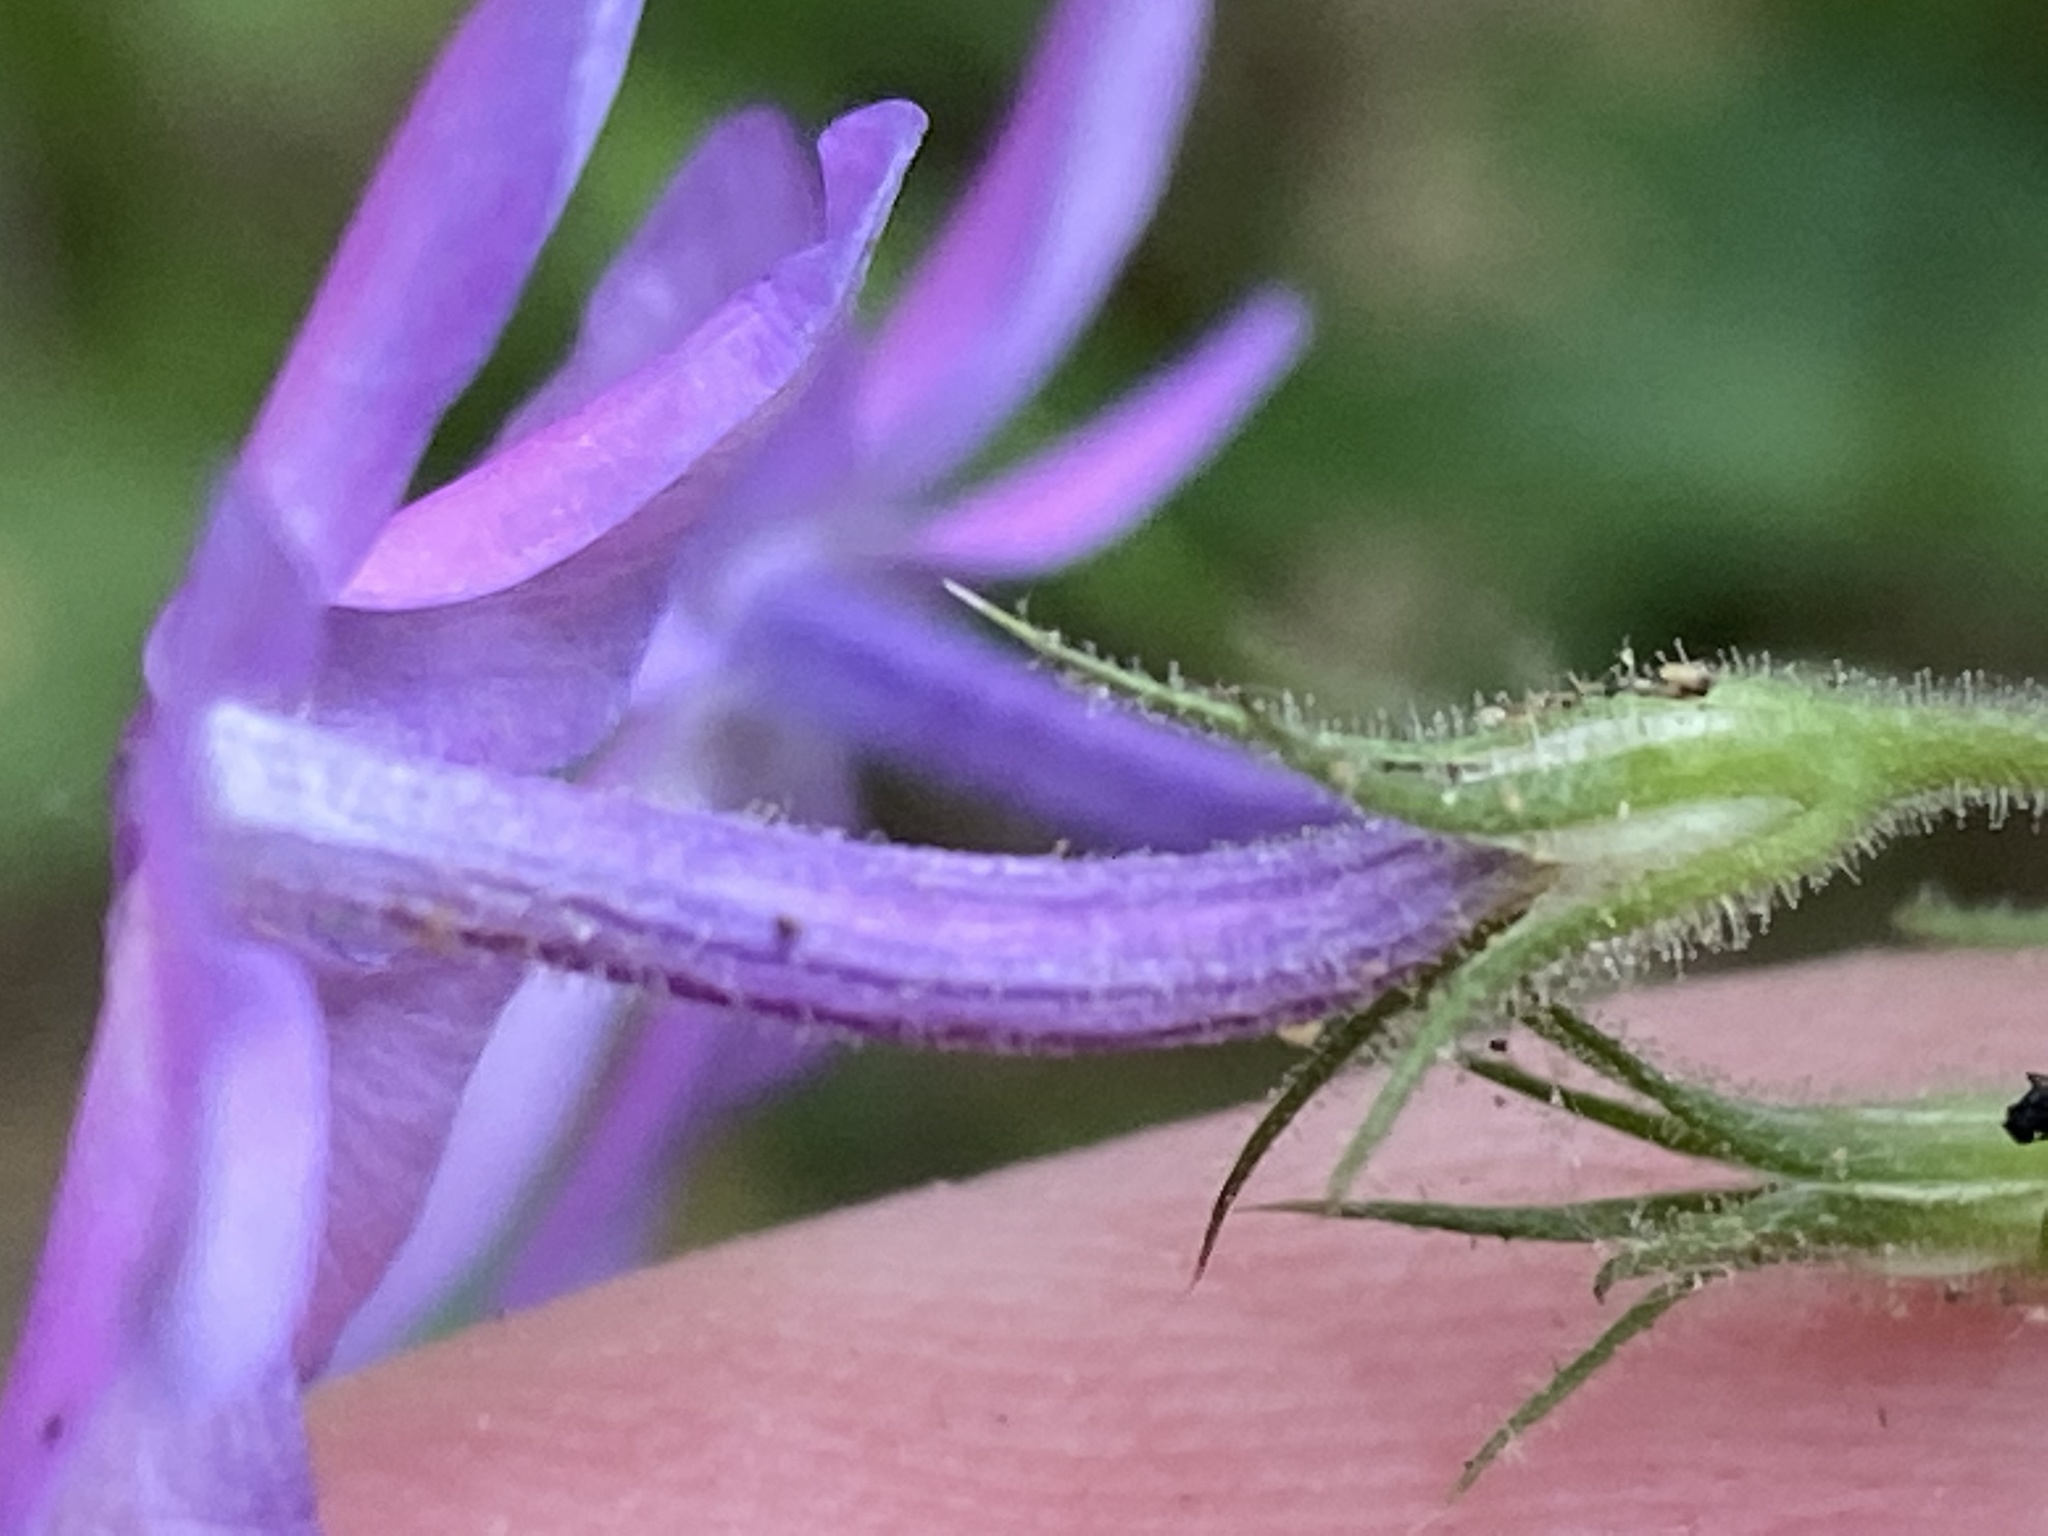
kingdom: Plantae
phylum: Tracheophyta
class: Magnoliopsida
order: Ericales
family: Polemoniaceae
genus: Phlox
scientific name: Phlox pilosa
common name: Prairie phlox
